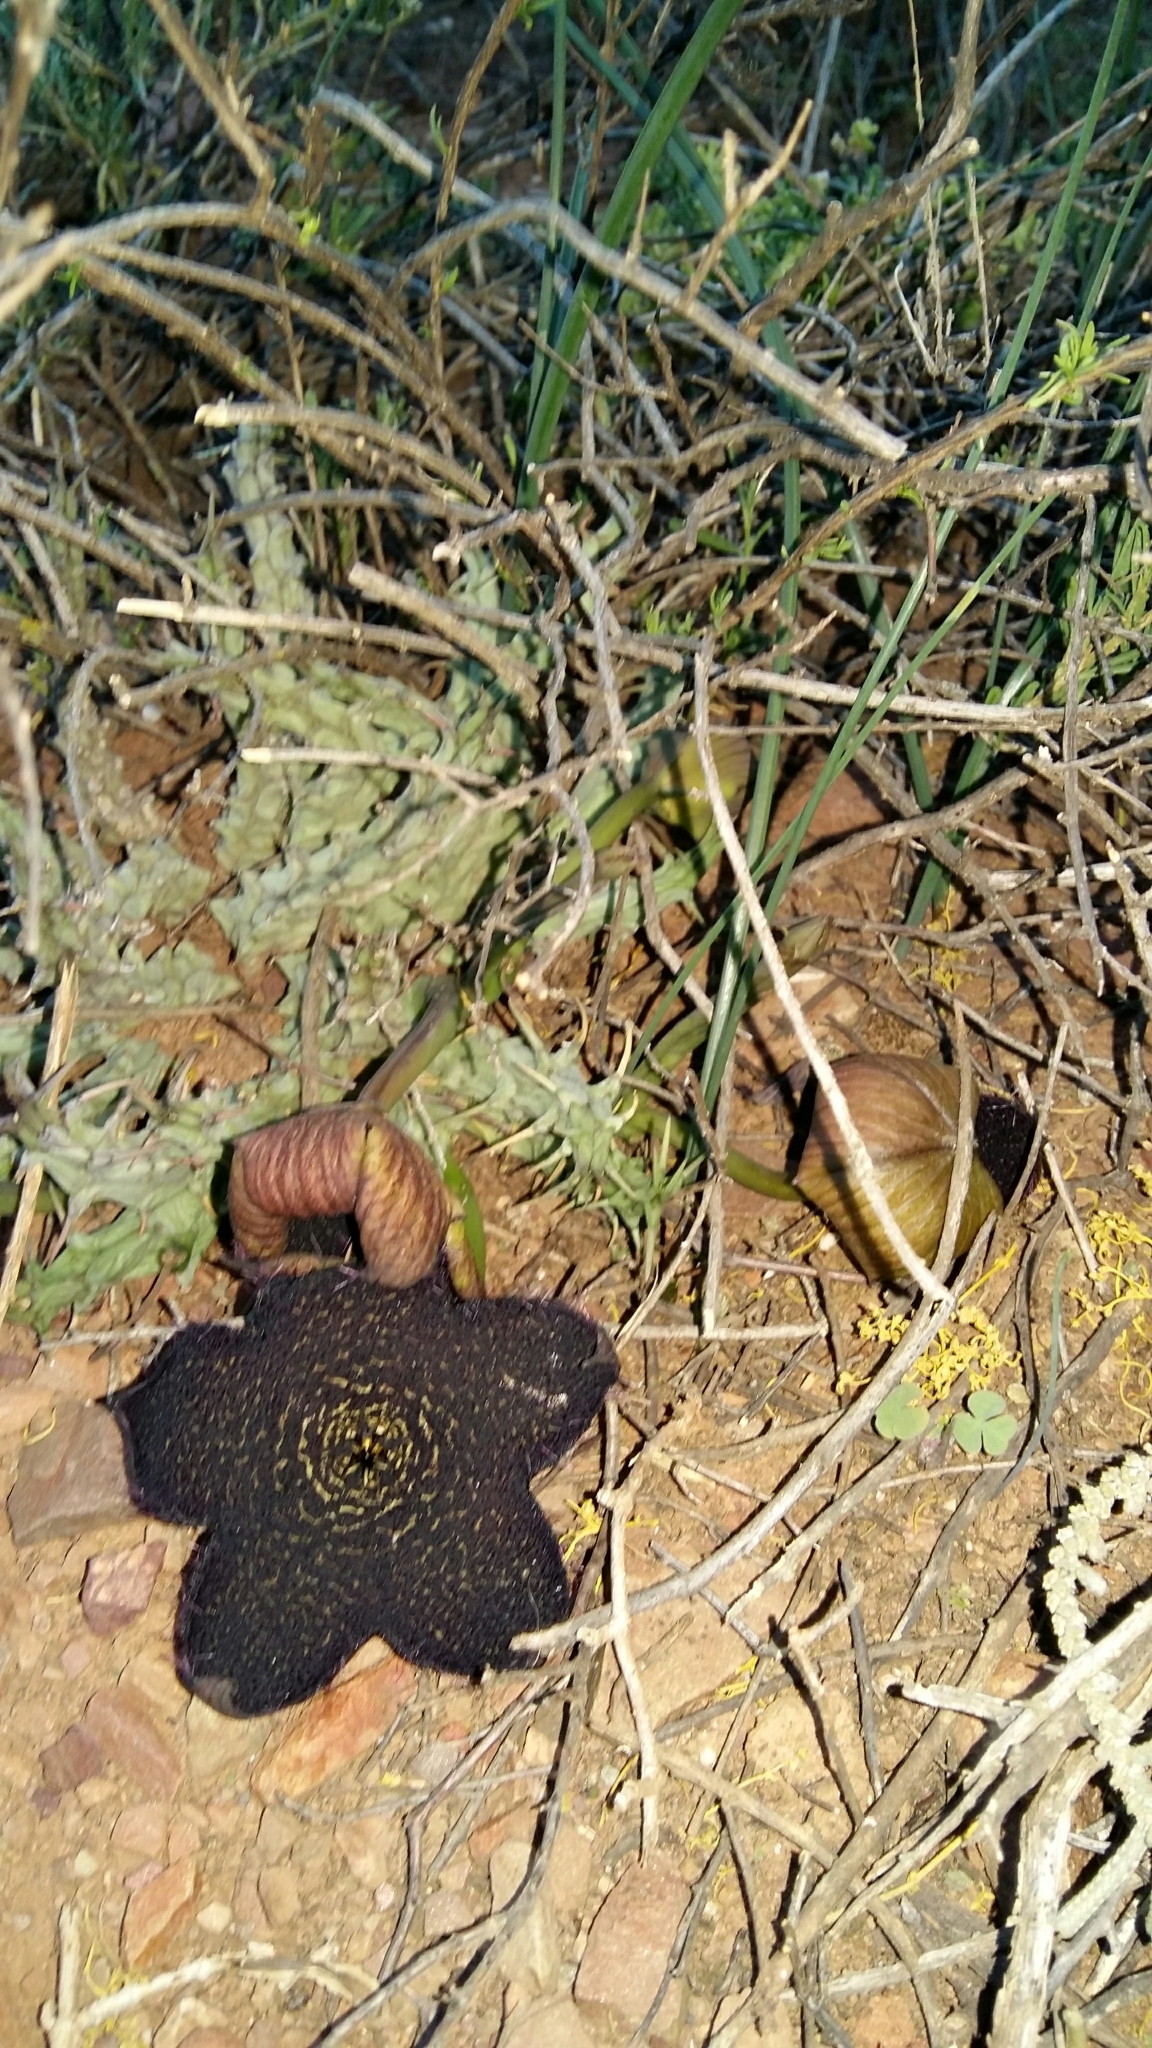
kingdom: Plantae
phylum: Tracheophyta
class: Magnoliopsida
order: Gentianales
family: Apocynaceae
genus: Ceropegia
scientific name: Ceropegia gemmiflora
